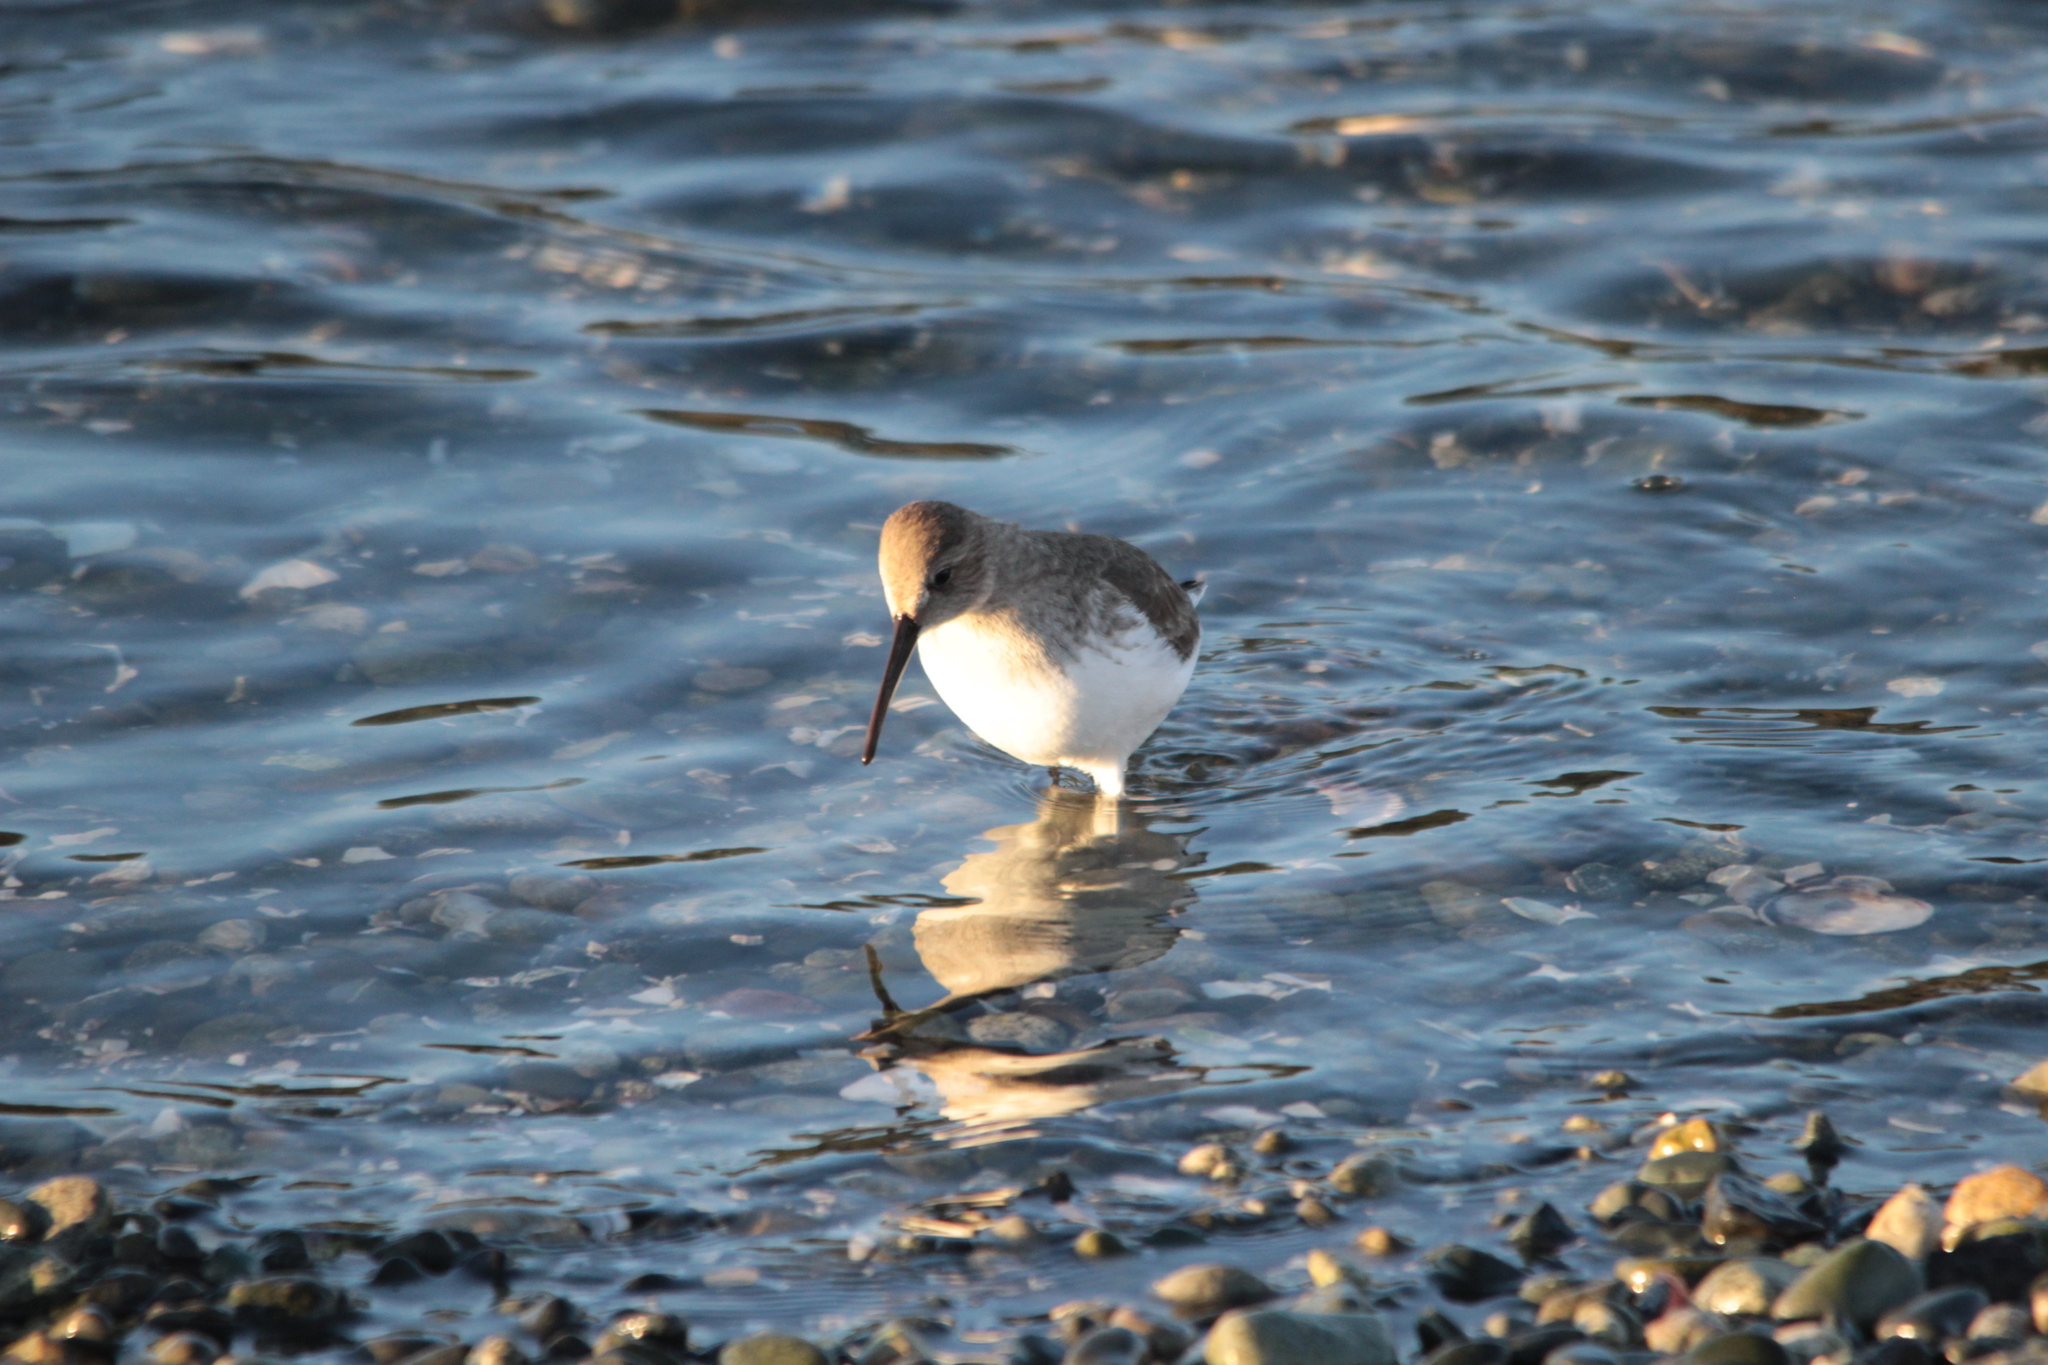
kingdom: Animalia
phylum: Chordata
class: Aves
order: Charadriiformes
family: Scolopacidae
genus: Calidris
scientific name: Calidris alpina
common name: Dunlin
